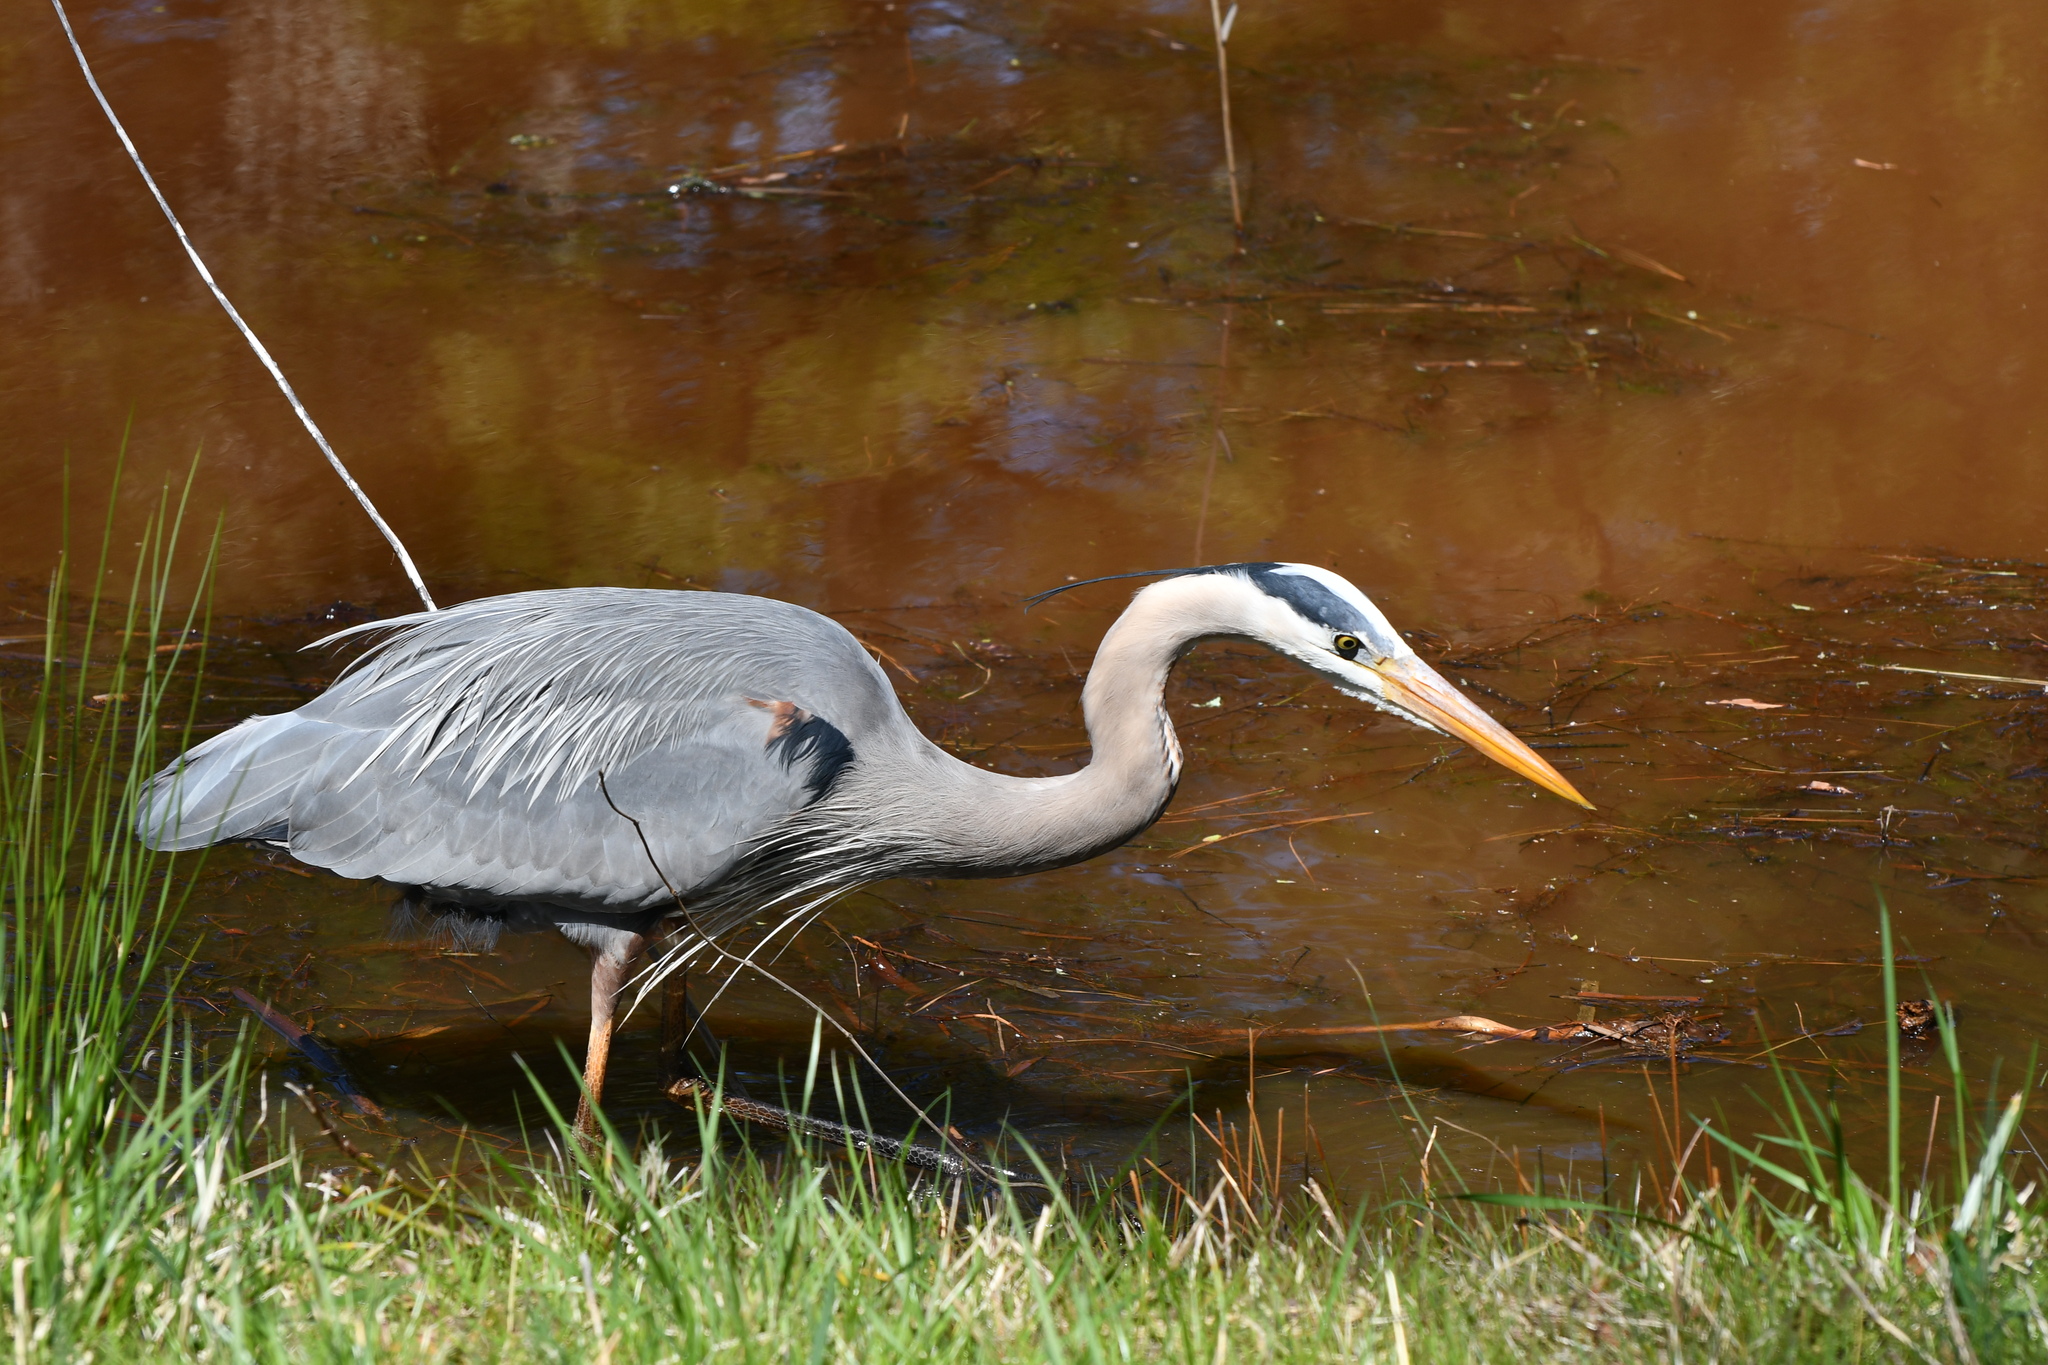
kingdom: Animalia
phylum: Chordata
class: Aves
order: Pelecaniformes
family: Ardeidae
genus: Ardea
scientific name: Ardea herodias
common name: Great blue heron
